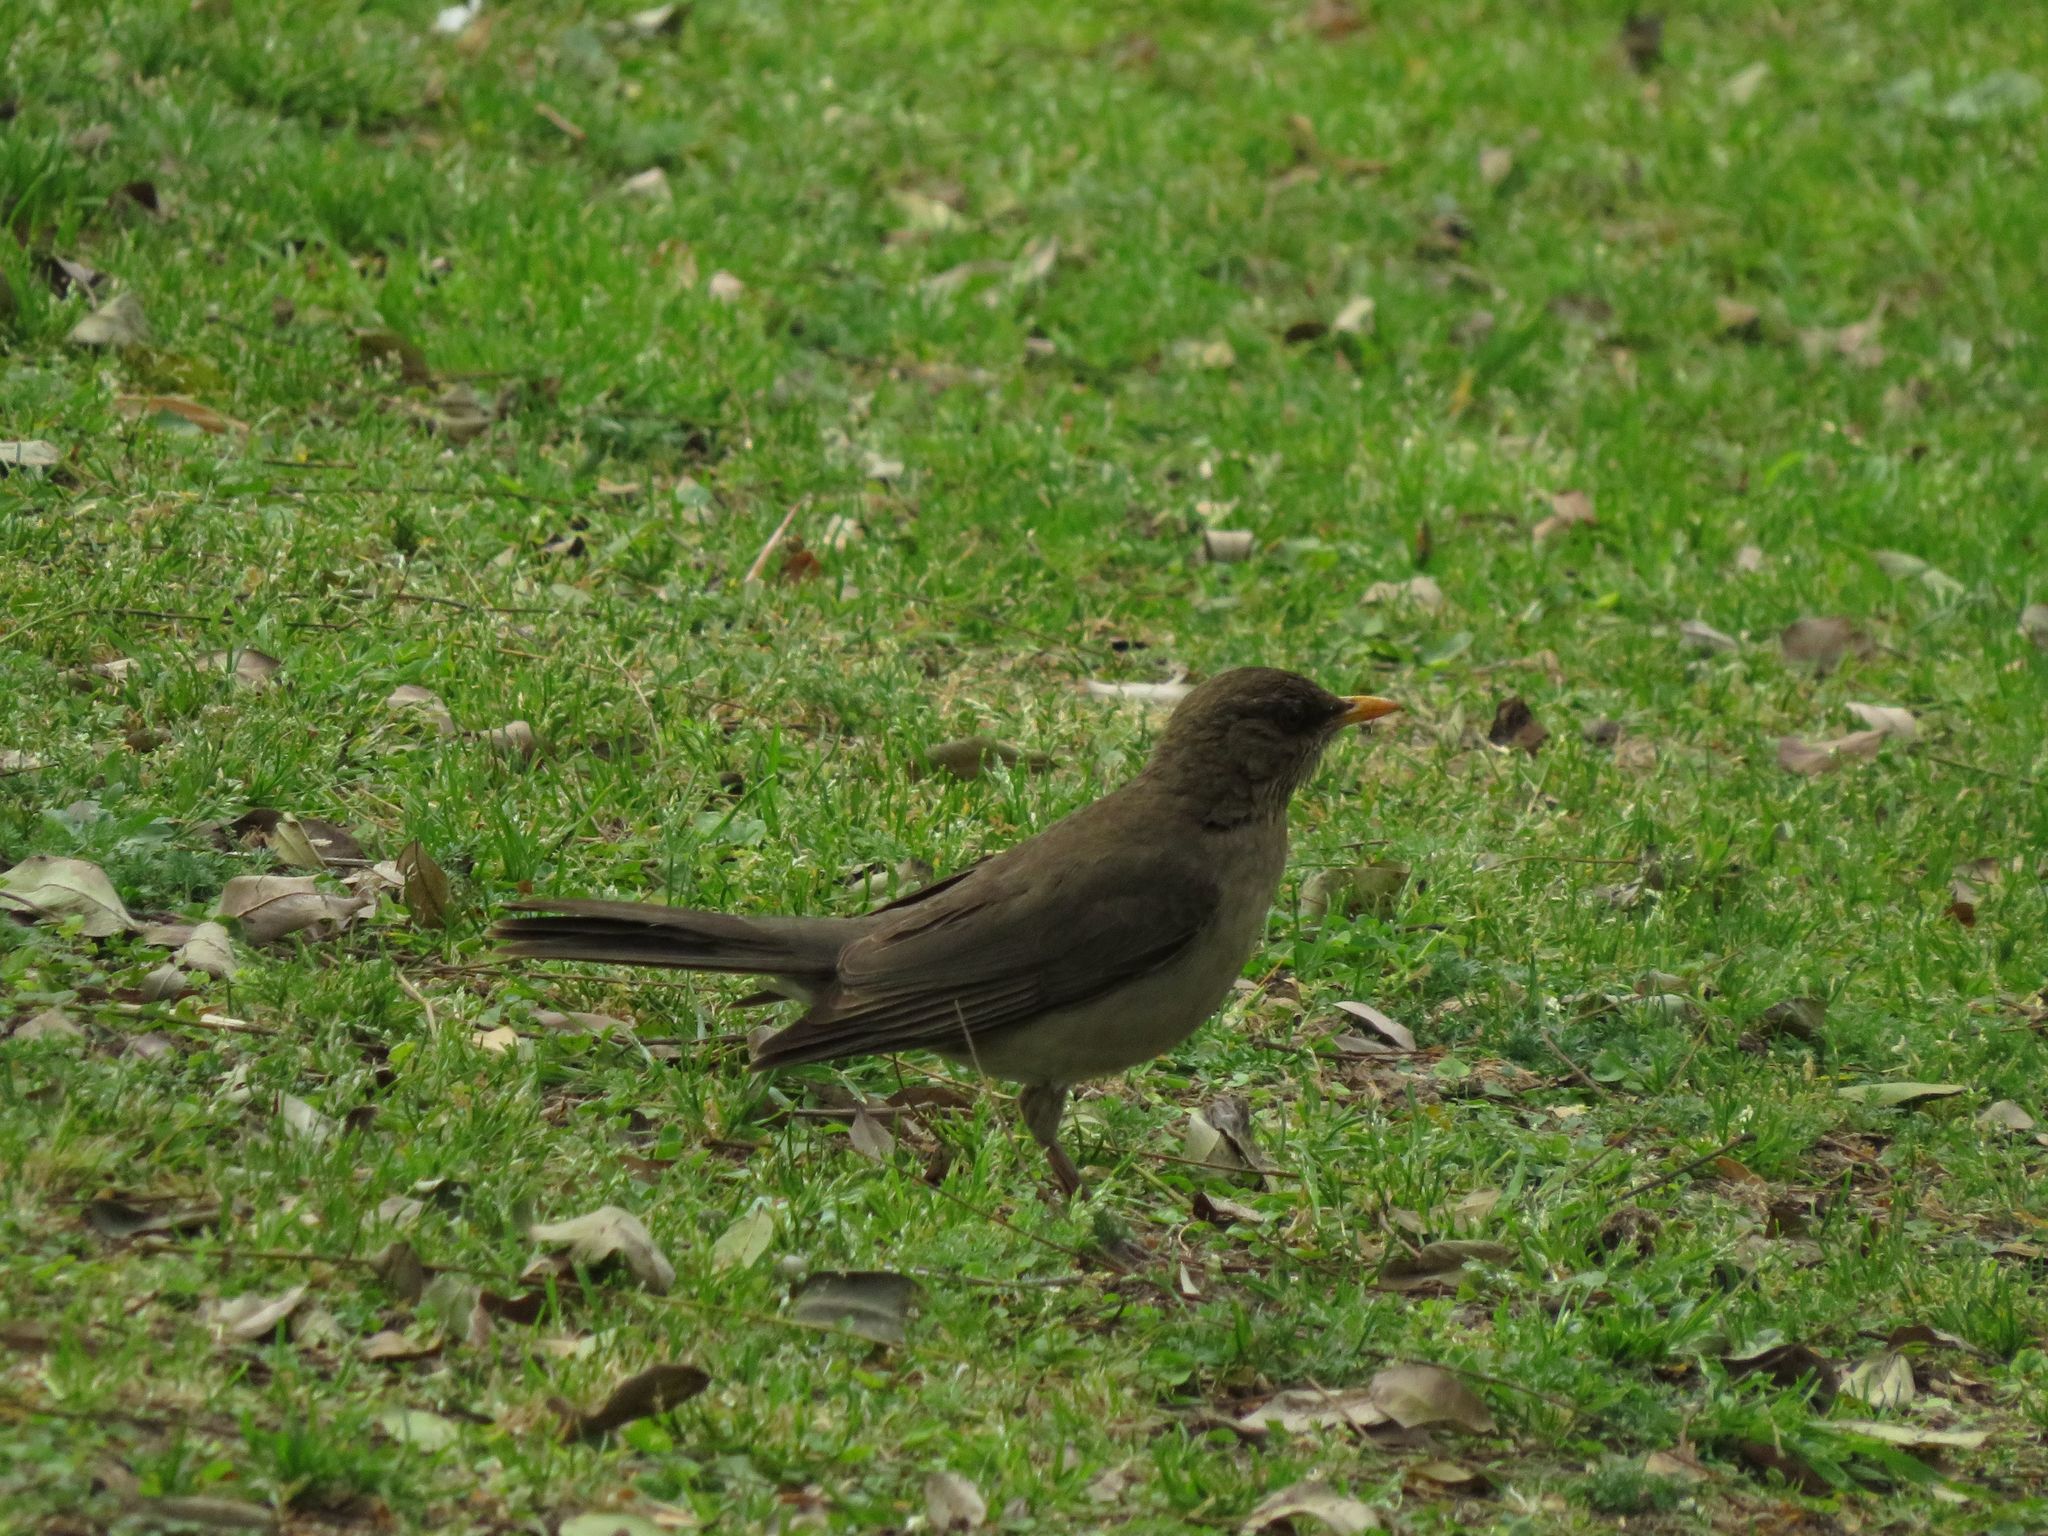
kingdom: Animalia
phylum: Chordata
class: Aves
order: Passeriformes
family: Turdidae
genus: Turdus
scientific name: Turdus amaurochalinus
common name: Creamy-bellied thrush
